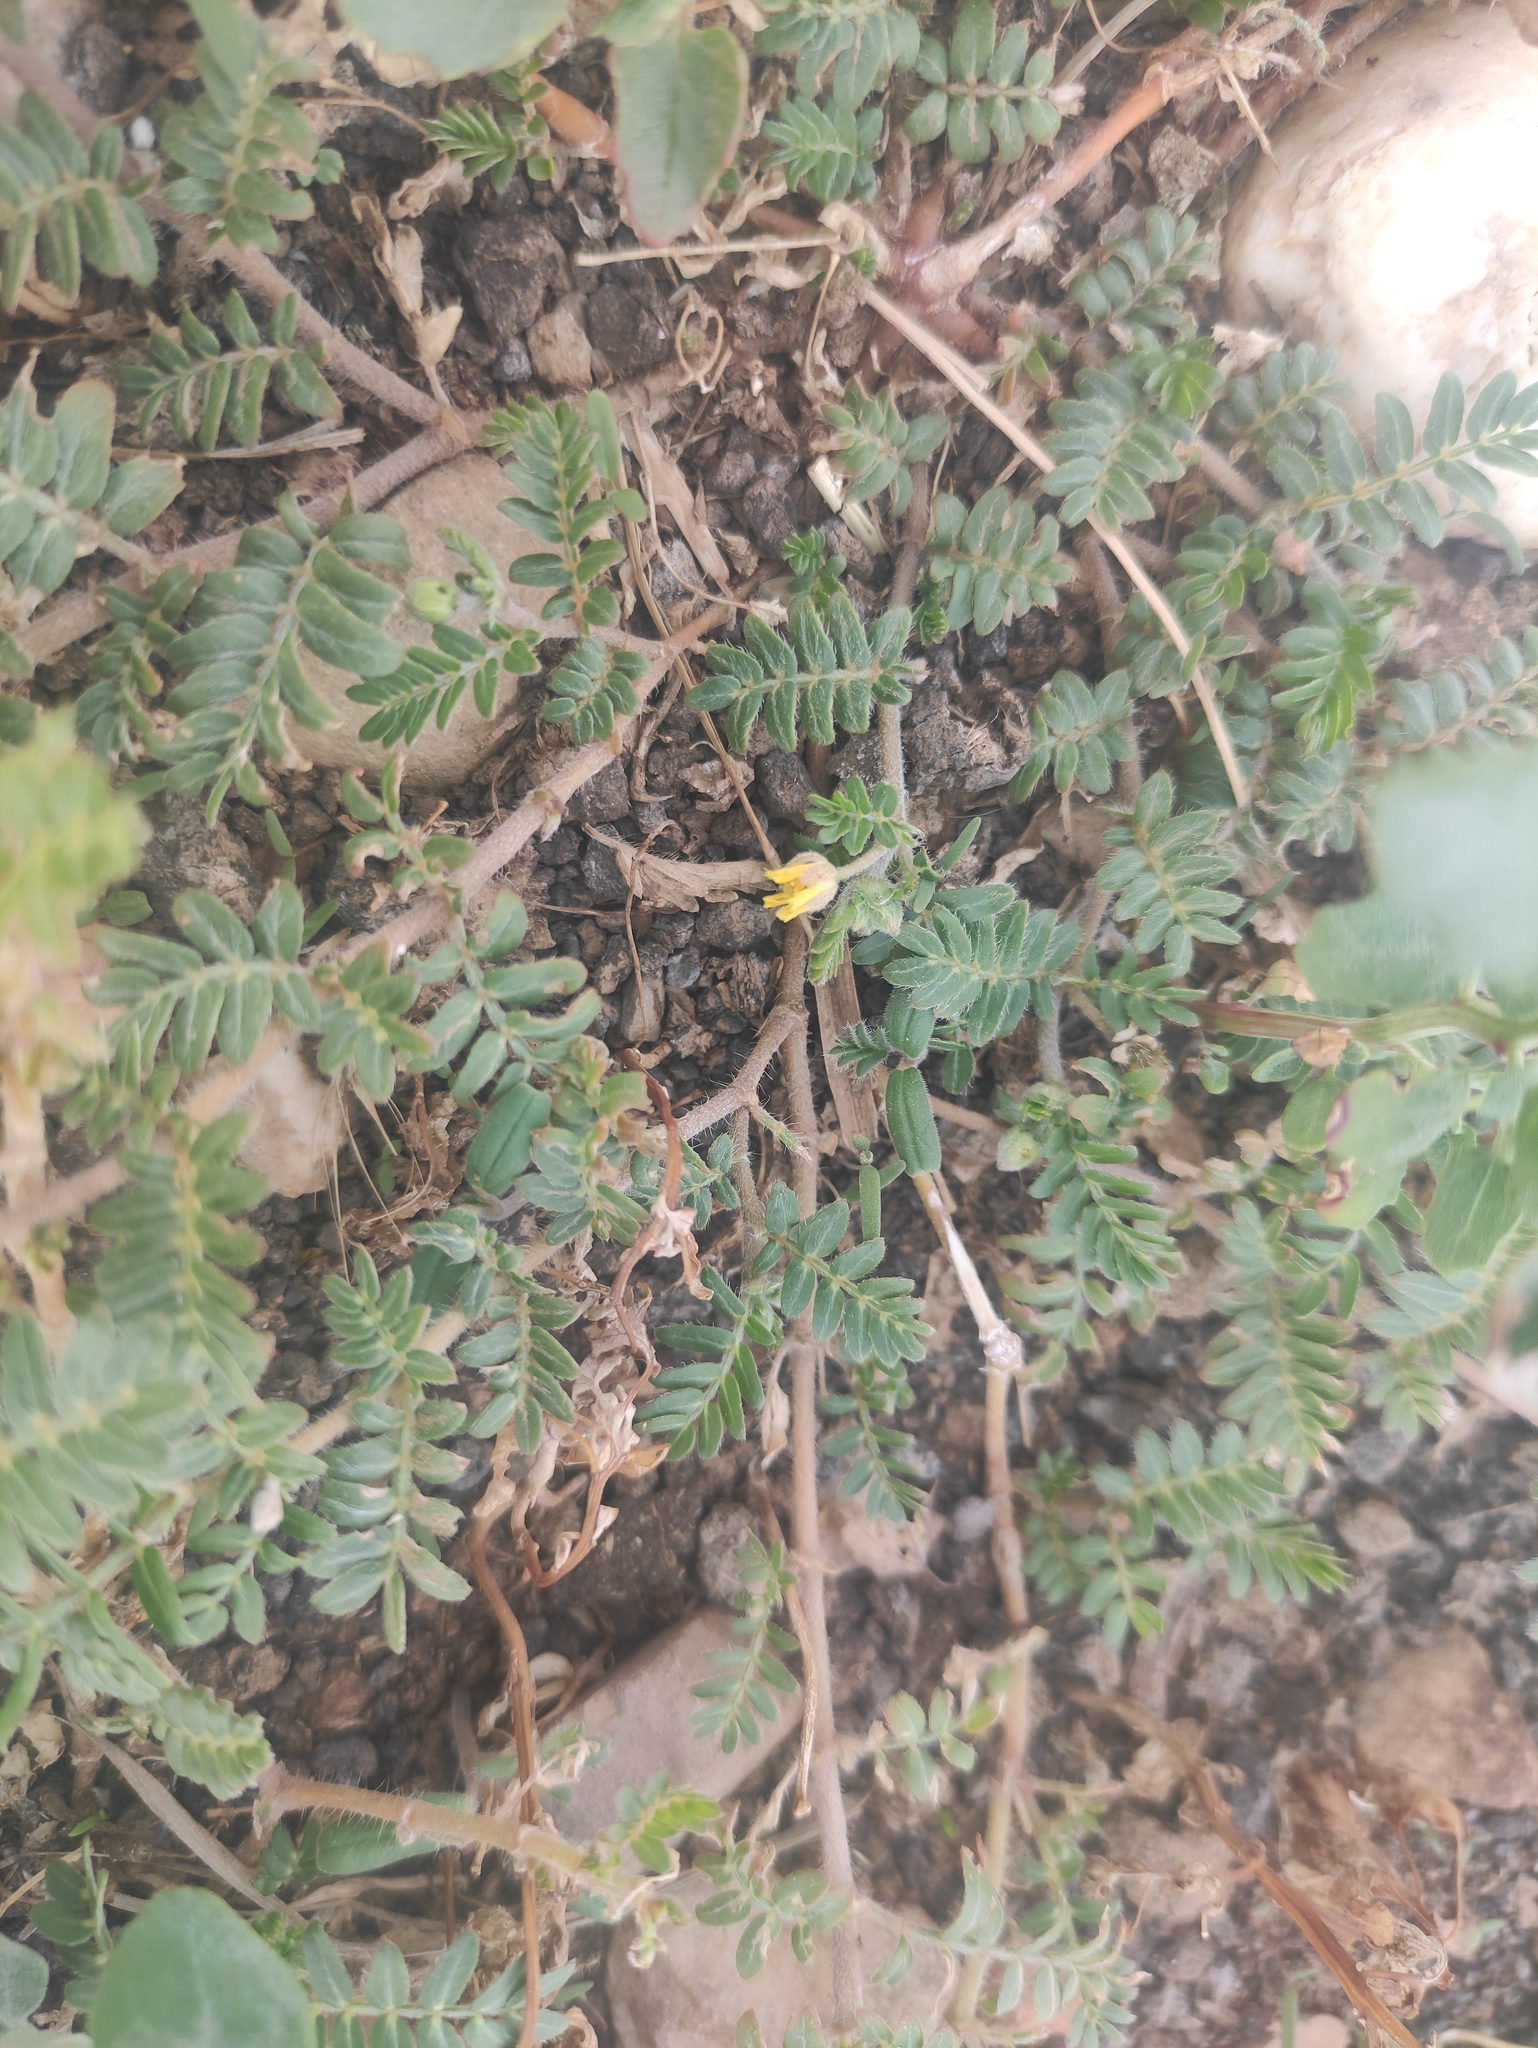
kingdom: Plantae
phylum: Tracheophyta
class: Magnoliopsida
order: Zygophyllales
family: Zygophyllaceae
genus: Tribulus
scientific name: Tribulus terrestris
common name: Puncturevine
